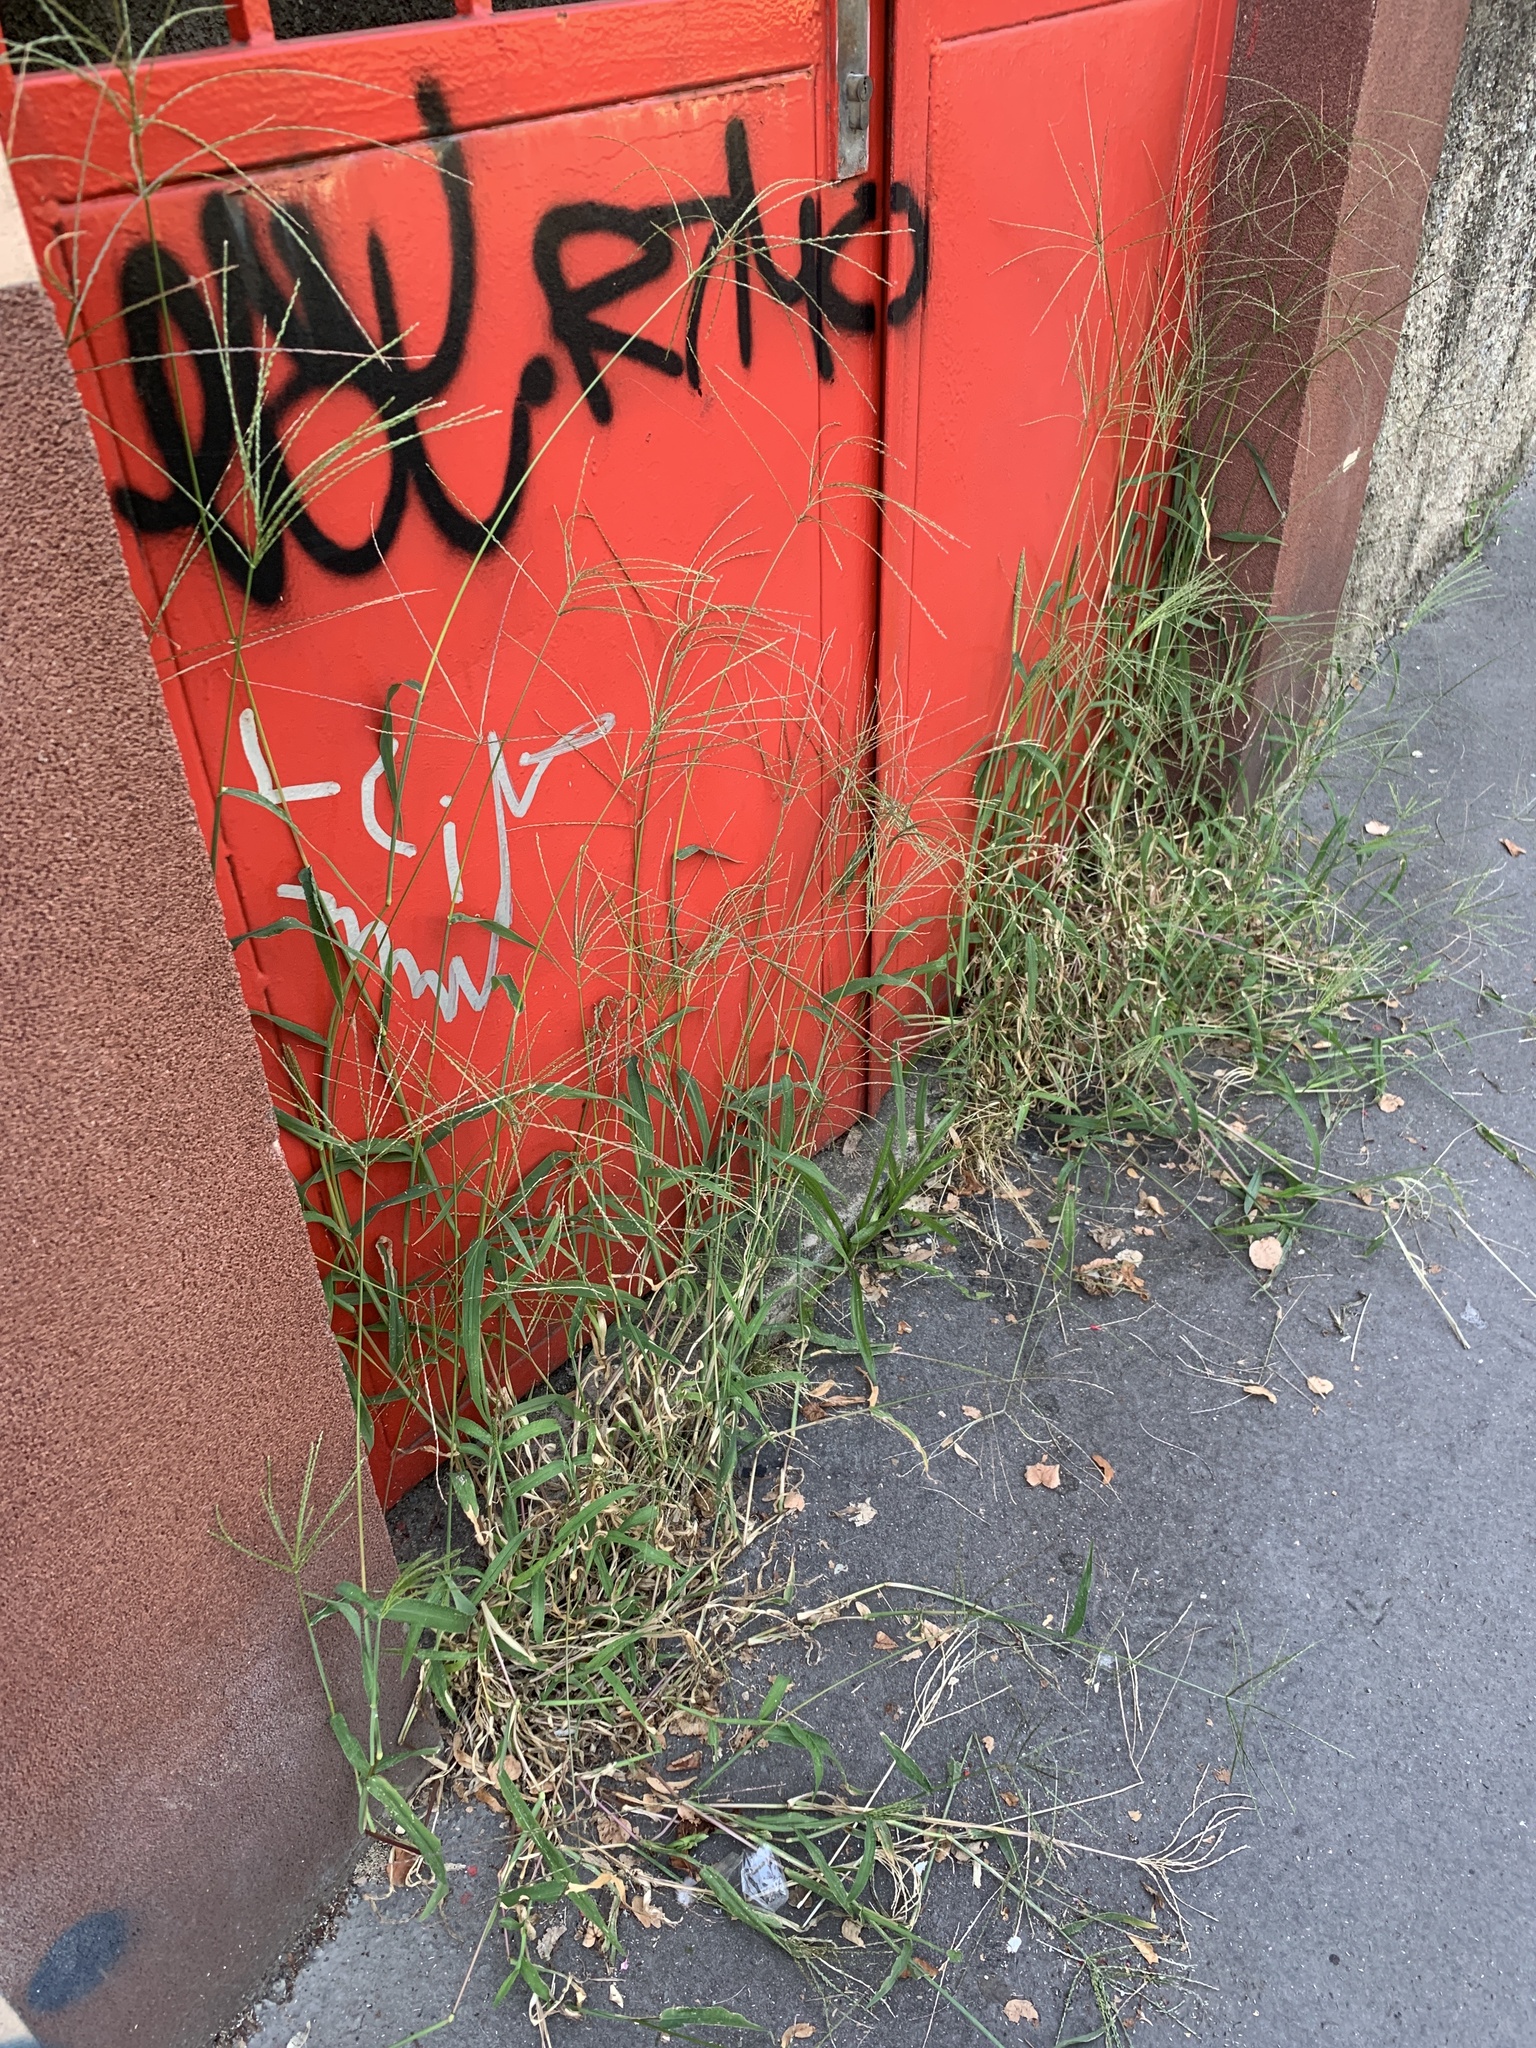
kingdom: Plantae
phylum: Tracheophyta
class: Liliopsida
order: Poales
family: Poaceae
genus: Digitaria
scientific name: Digitaria sanguinalis
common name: Hairy crabgrass
